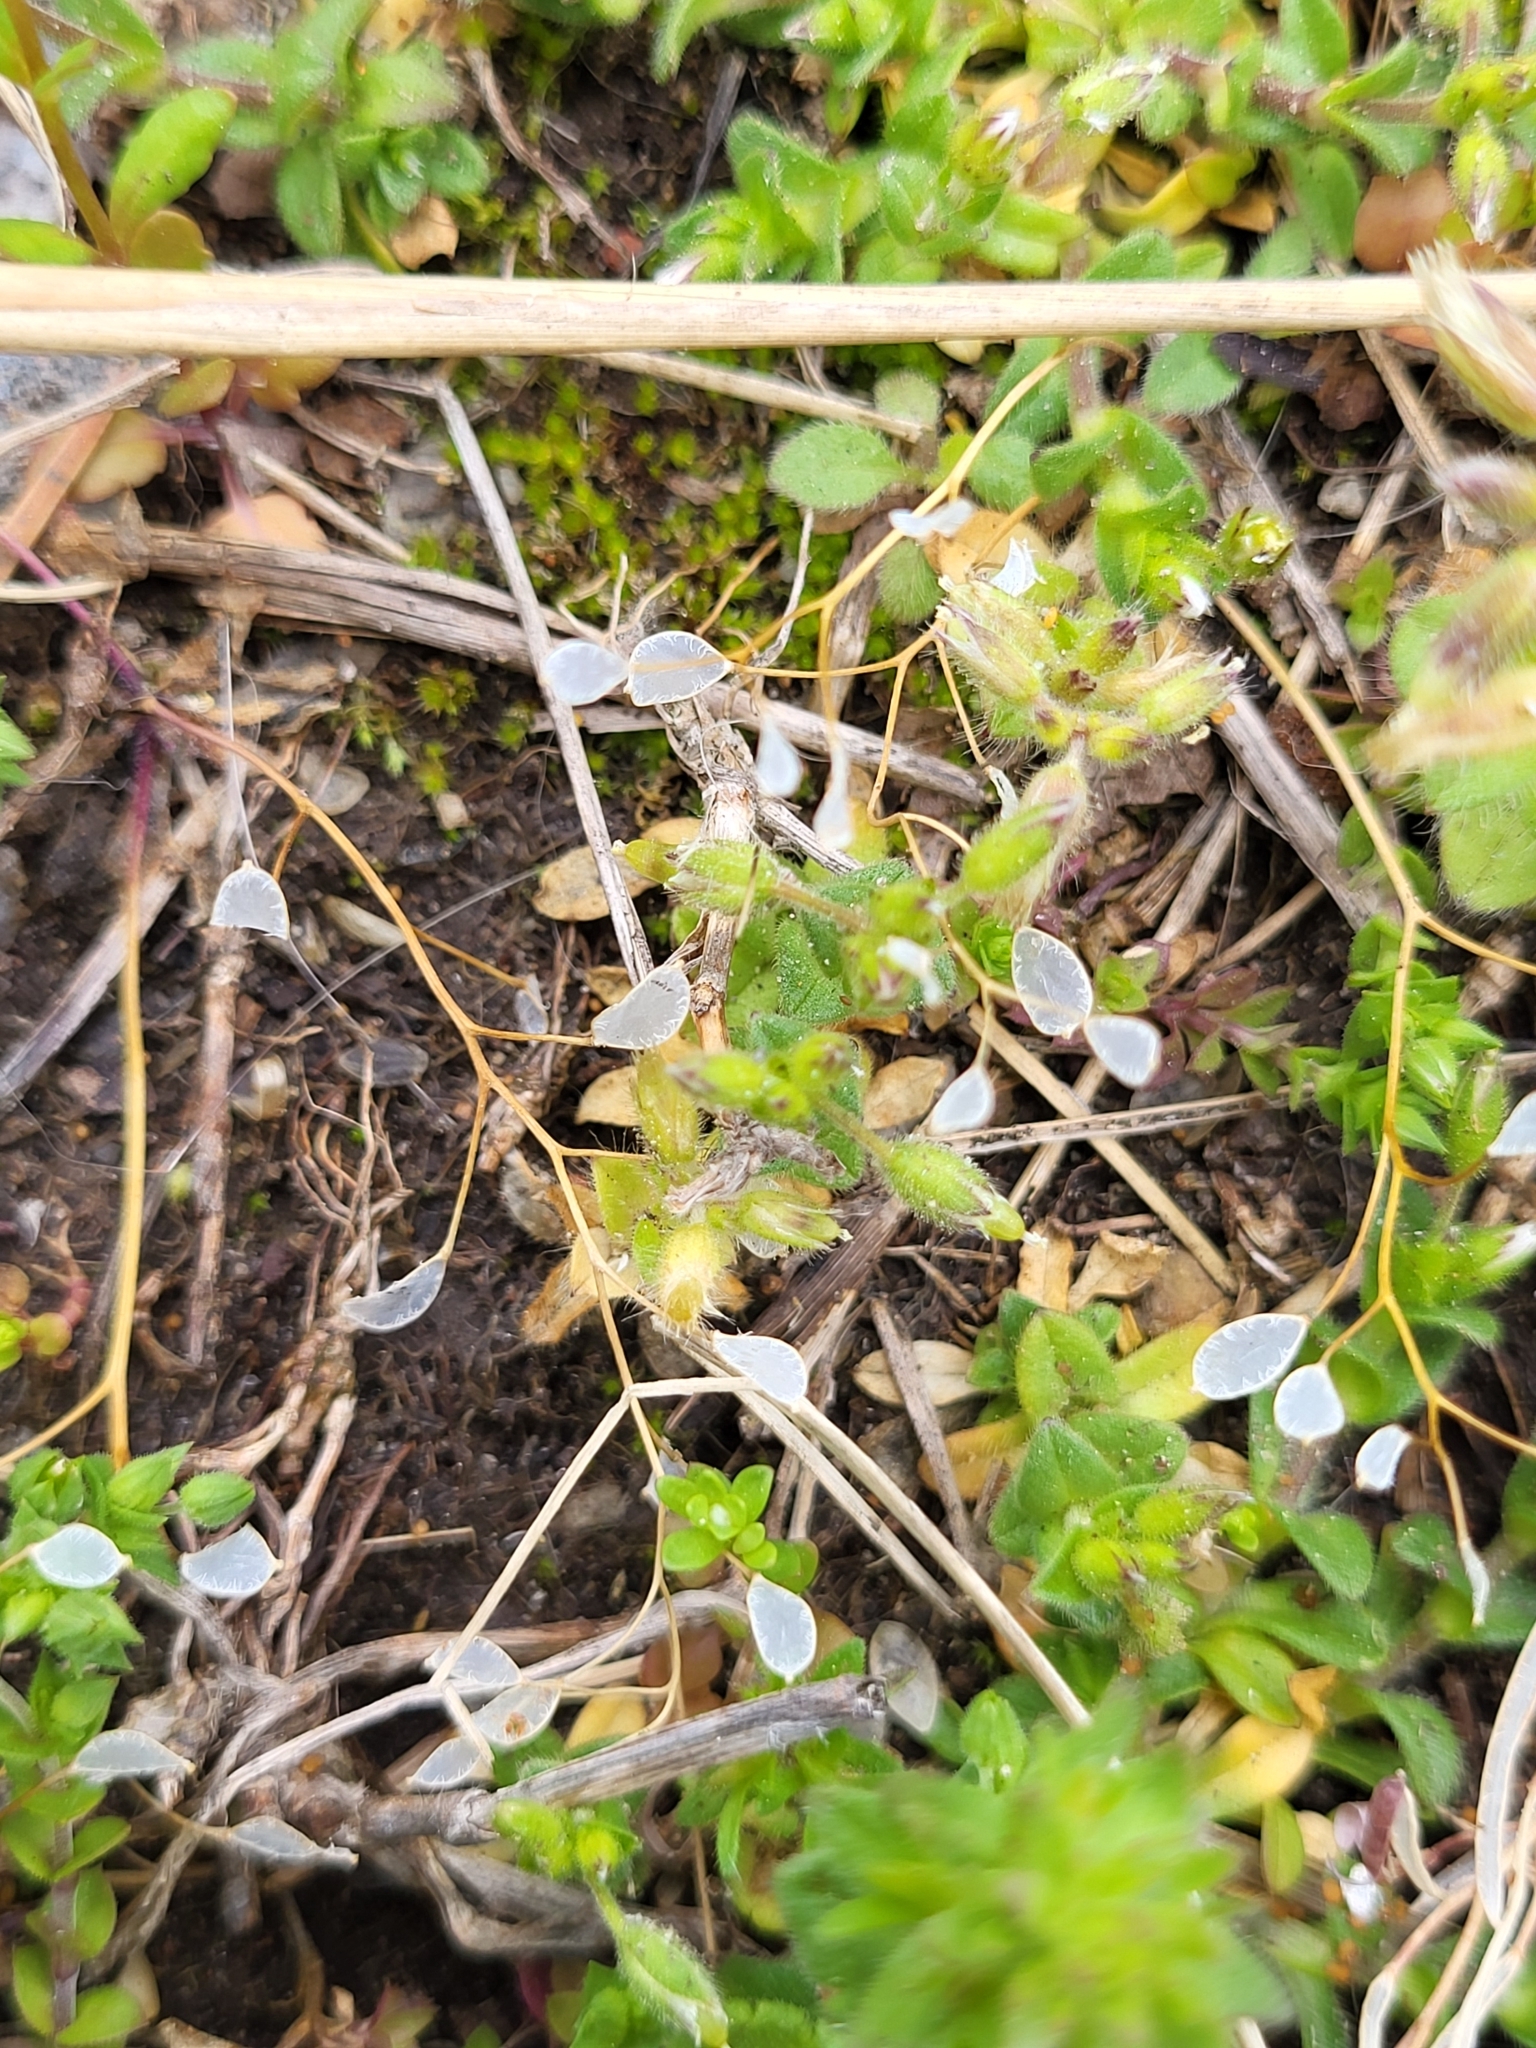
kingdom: Plantae
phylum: Tracheophyta
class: Magnoliopsida
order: Brassicales
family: Brassicaceae
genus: Draba
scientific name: Draba verna
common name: Spring draba
